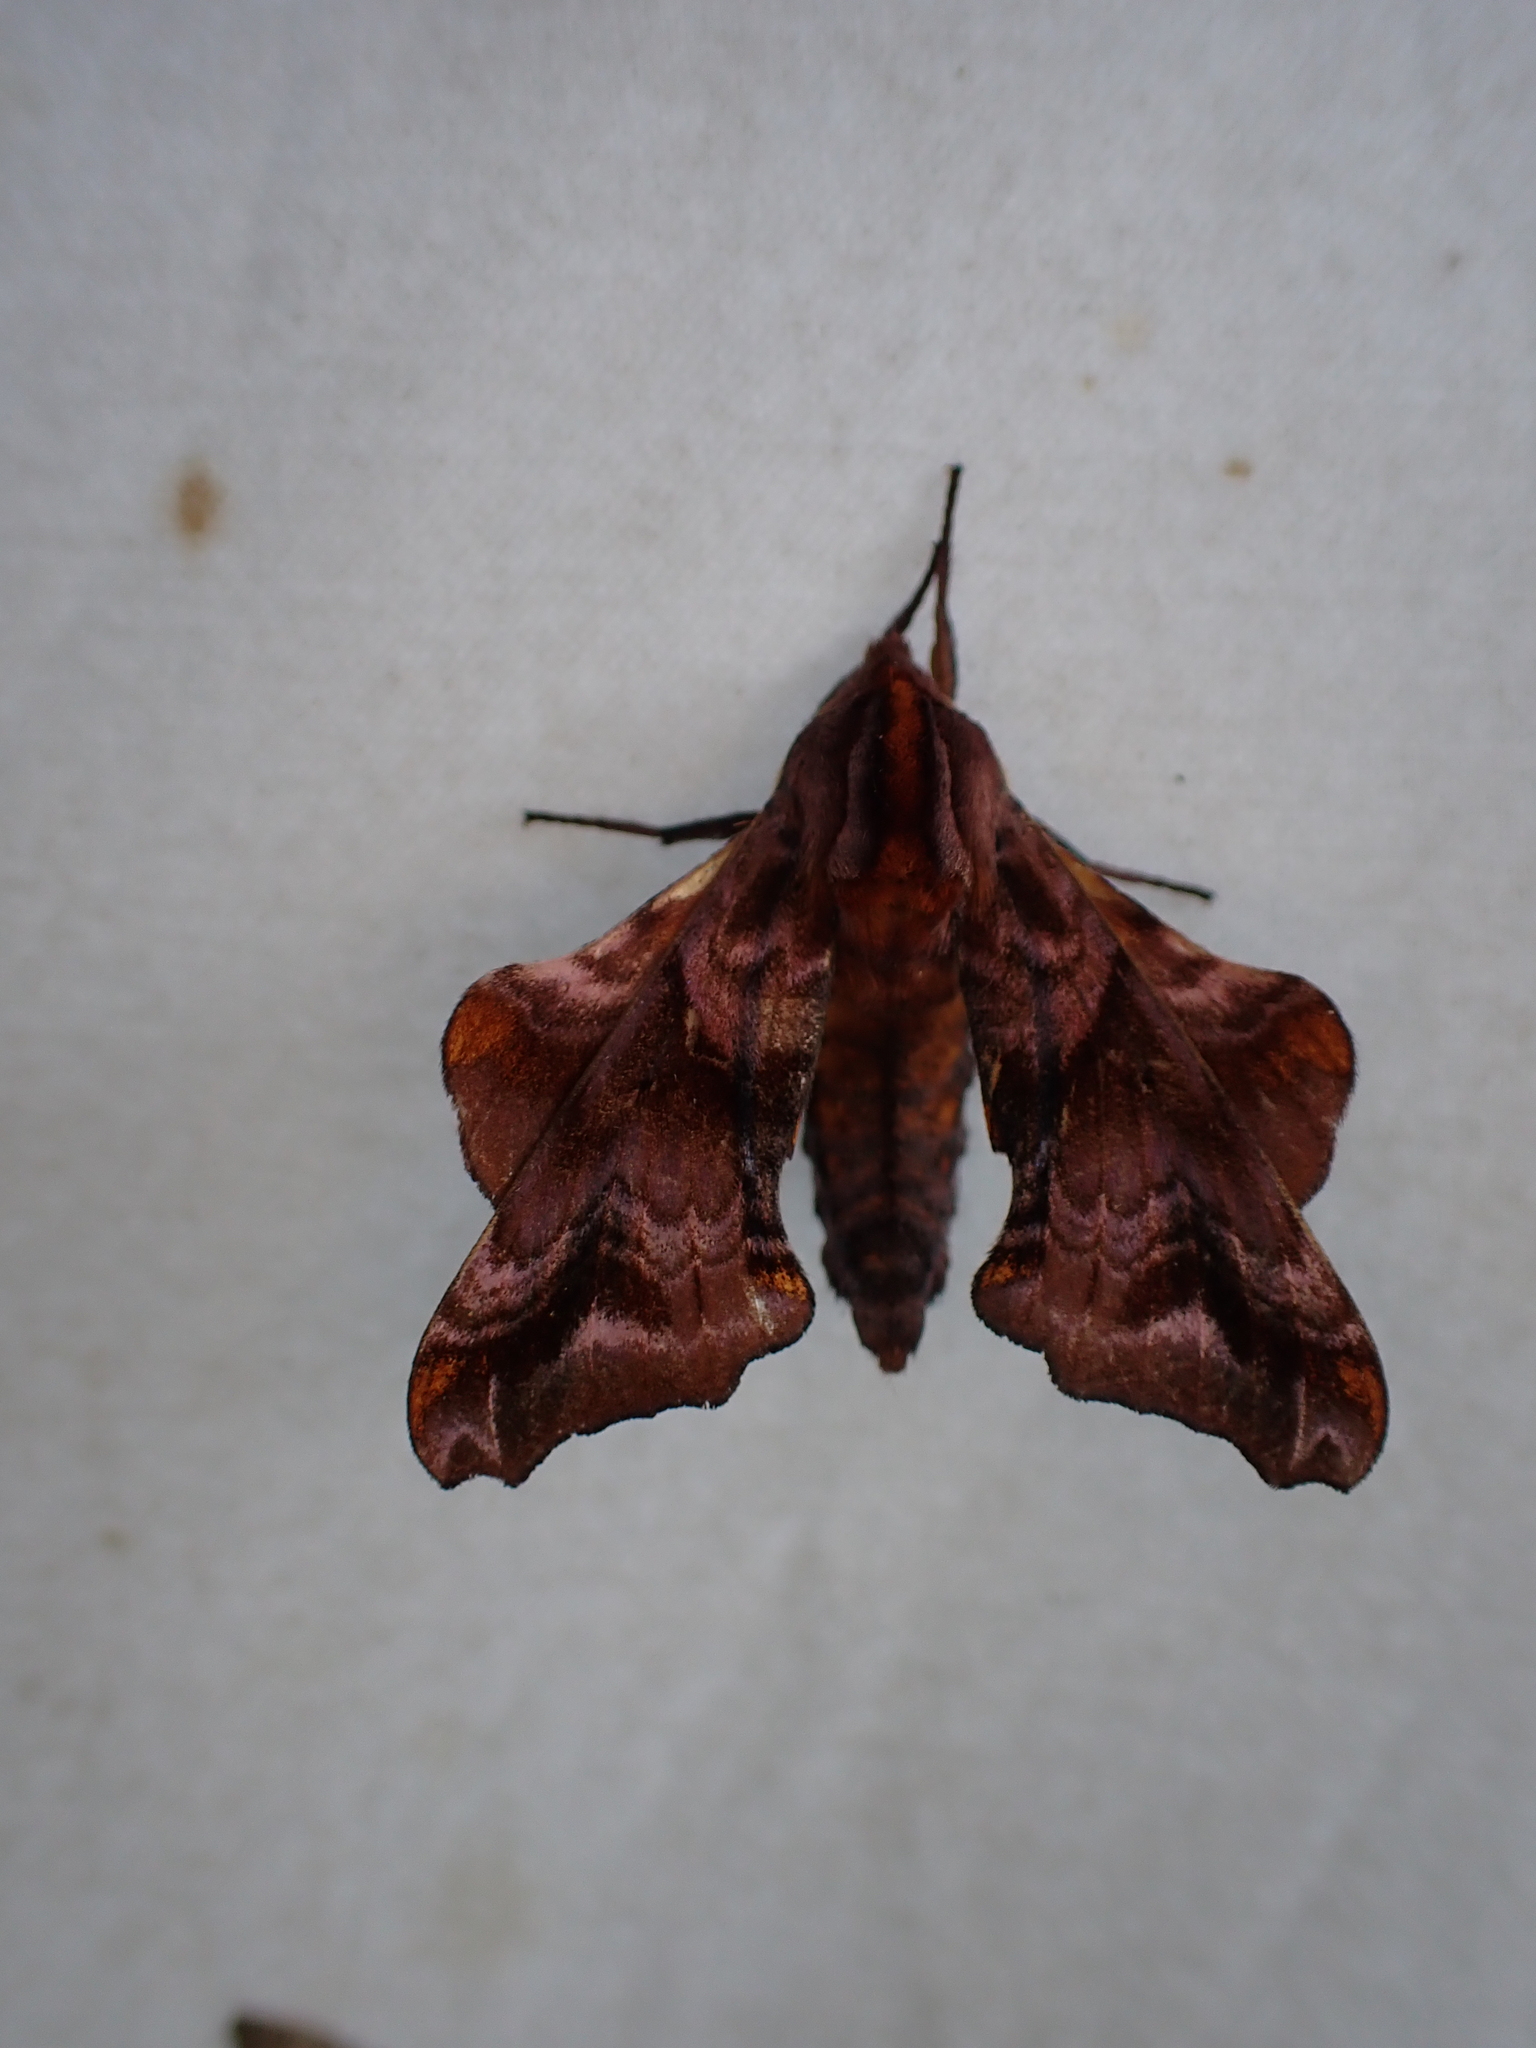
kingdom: Animalia
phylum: Arthropoda
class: Insecta
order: Lepidoptera
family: Sphingidae
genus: Paonias
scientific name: Paonias myops
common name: Small-eyed sphinx
